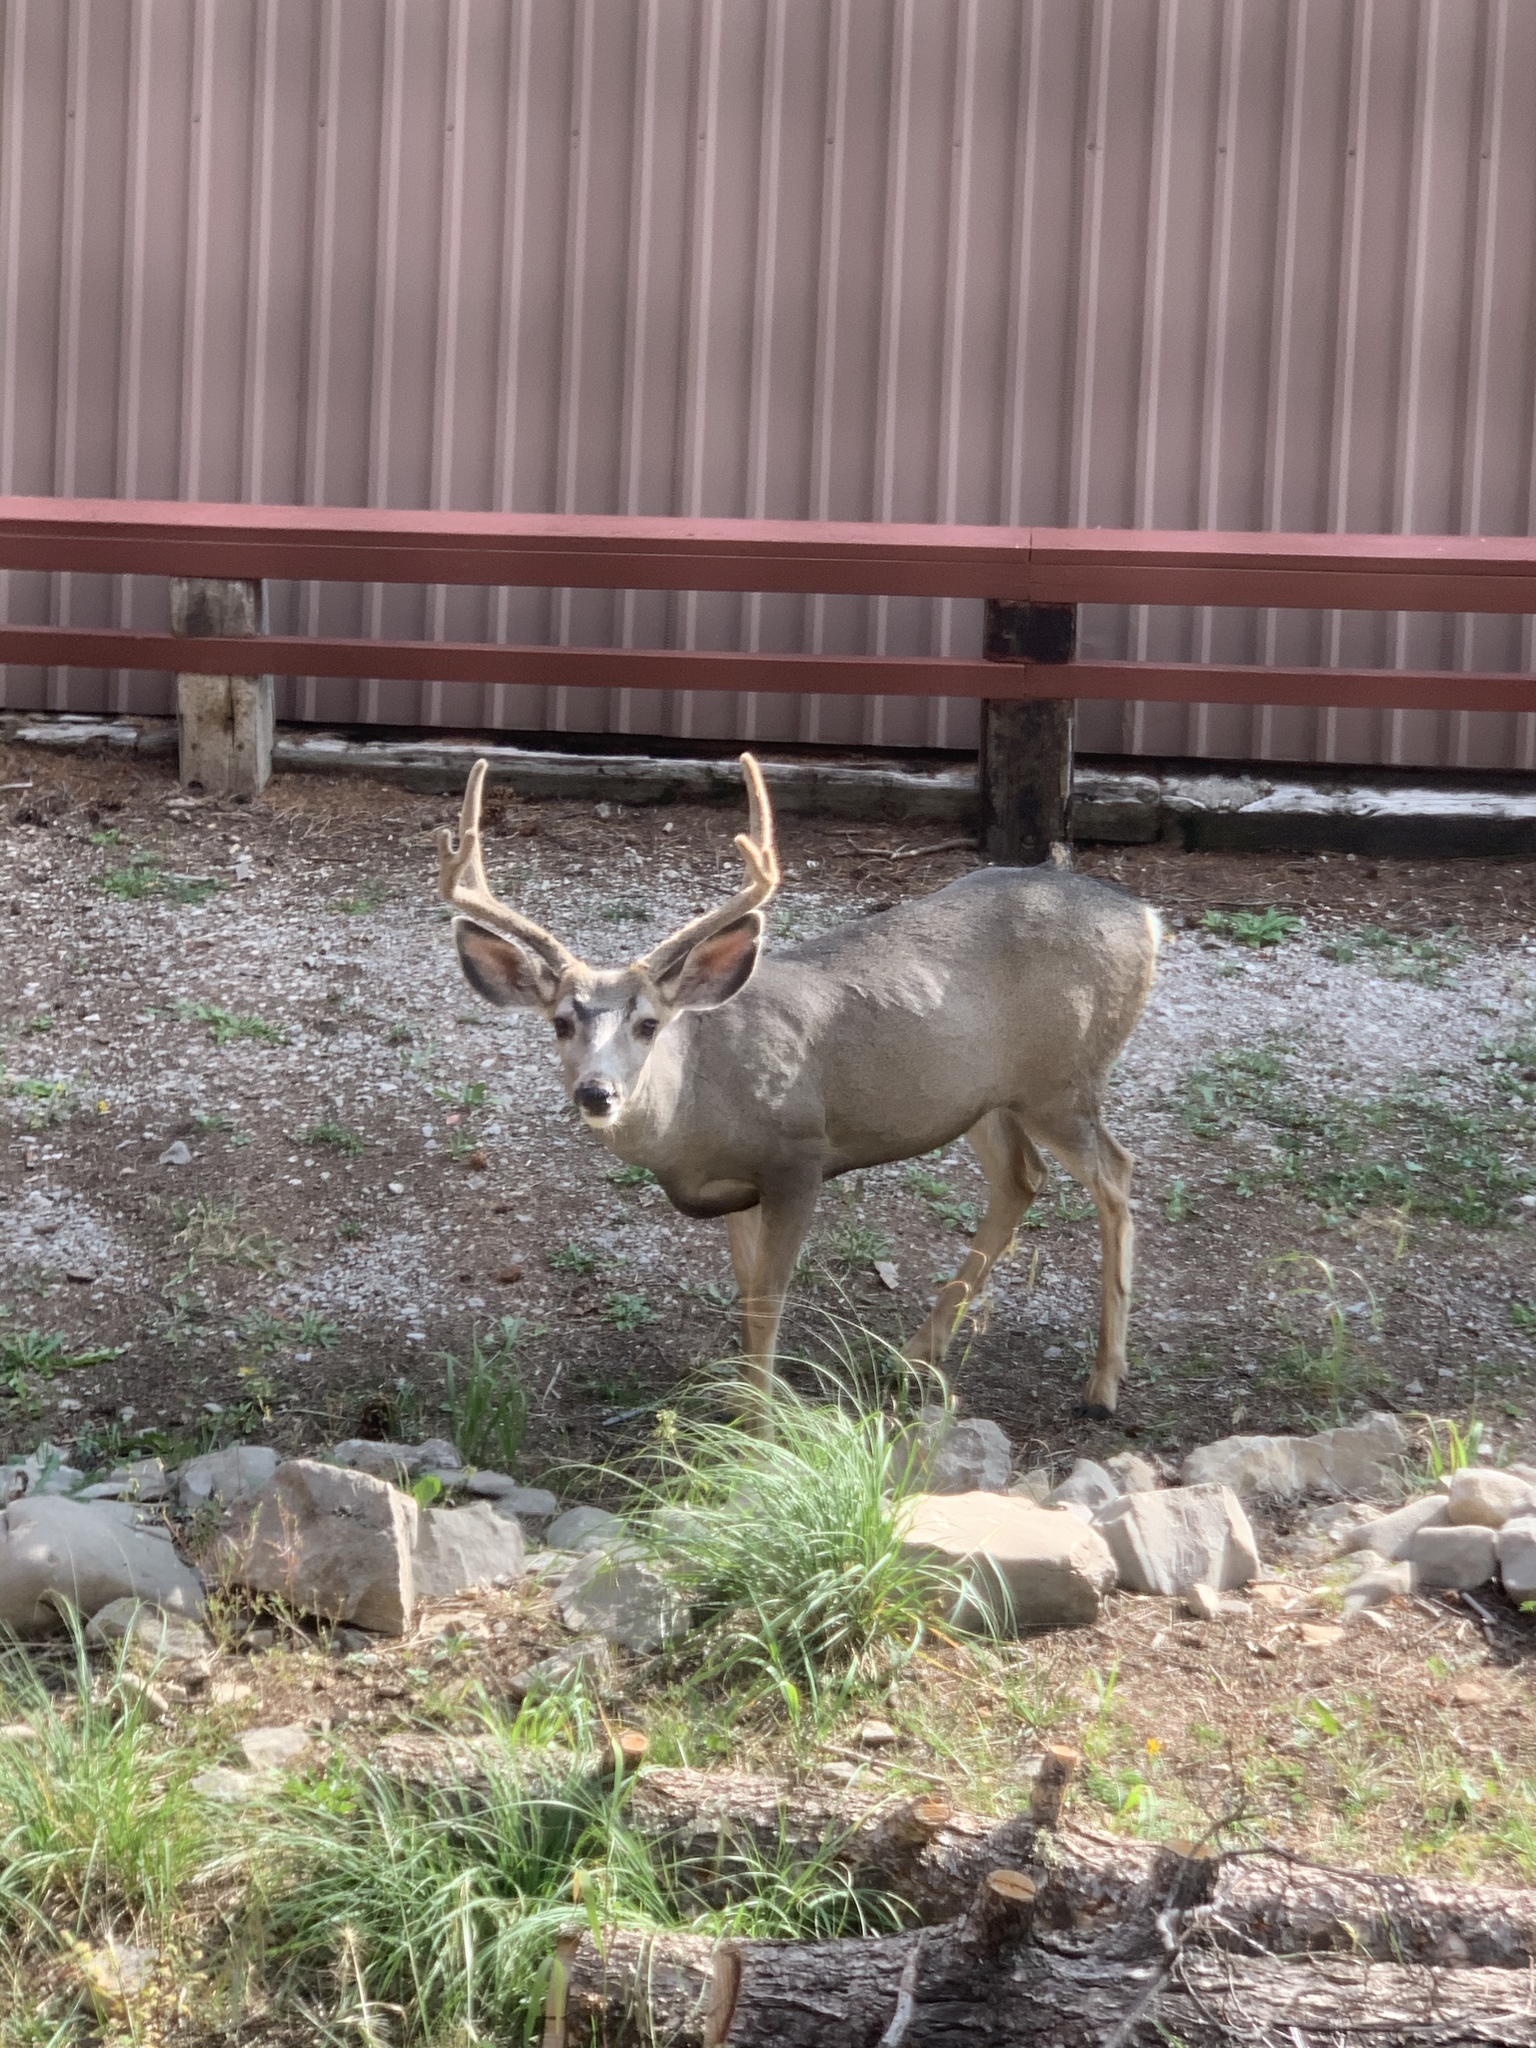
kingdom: Animalia
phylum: Chordata
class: Mammalia
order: Artiodactyla
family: Cervidae
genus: Odocoileus
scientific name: Odocoileus hemionus
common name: Mule deer
